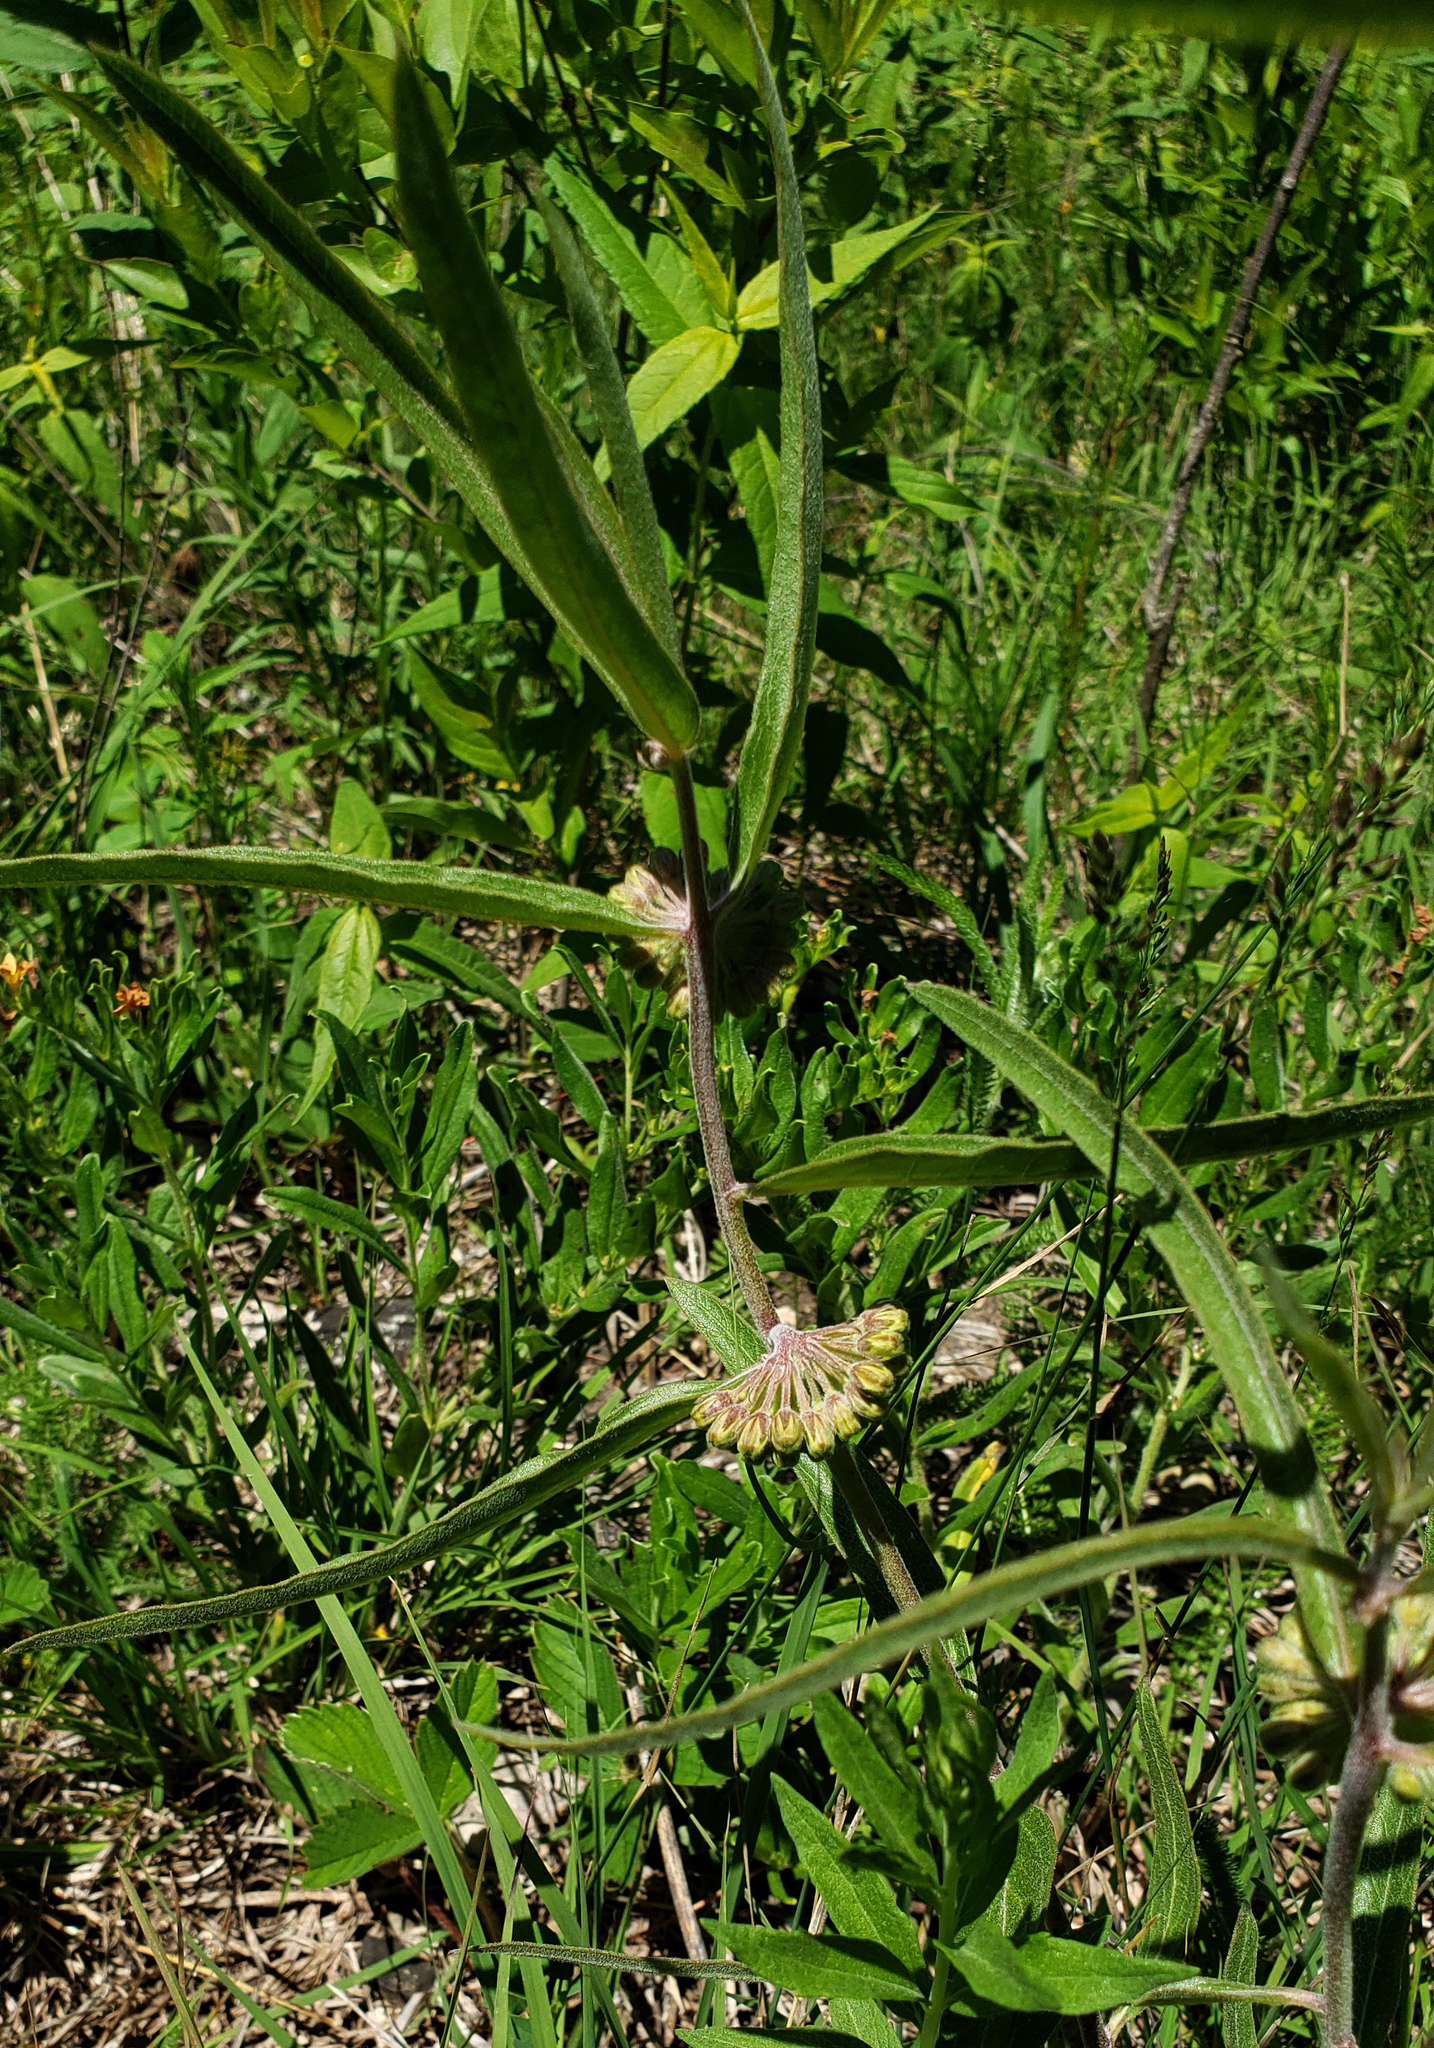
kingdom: Plantae
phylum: Tracheophyta
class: Magnoliopsida
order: Gentianales
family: Apocynaceae
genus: Asclepias
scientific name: Asclepias viridiflora
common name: Green comet milkweed
